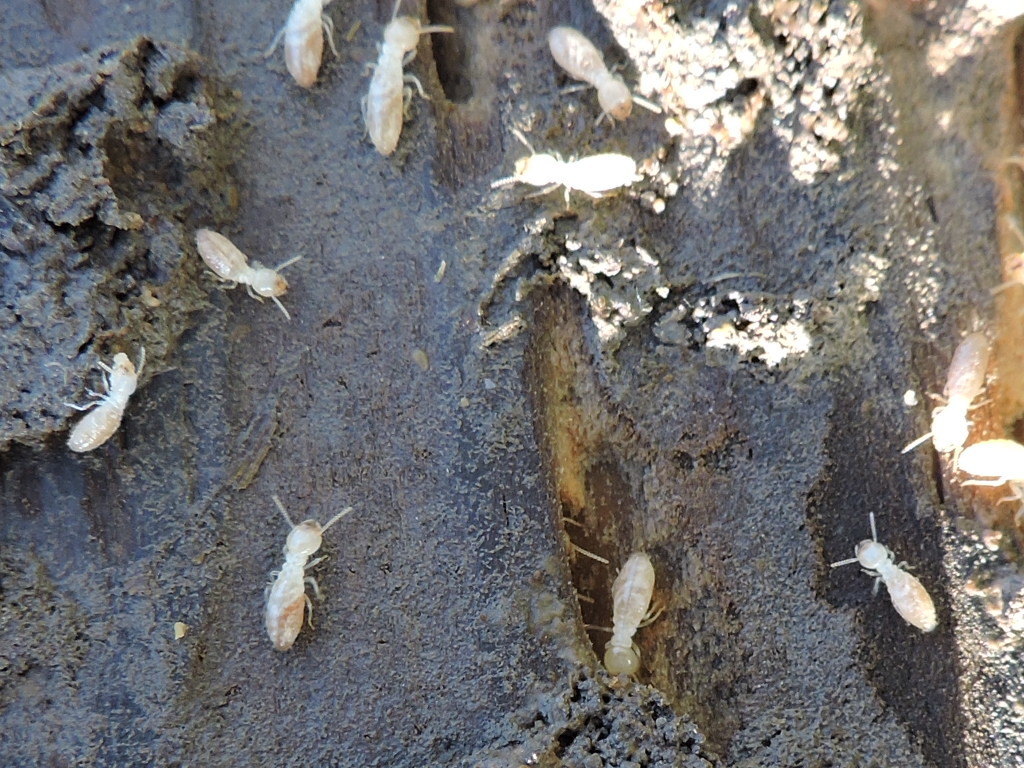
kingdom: Animalia
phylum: Arthropoda
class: Insecta
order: Blattodea
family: Rhinotermitidae
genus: Reticulitermes
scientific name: Reticulitermes
